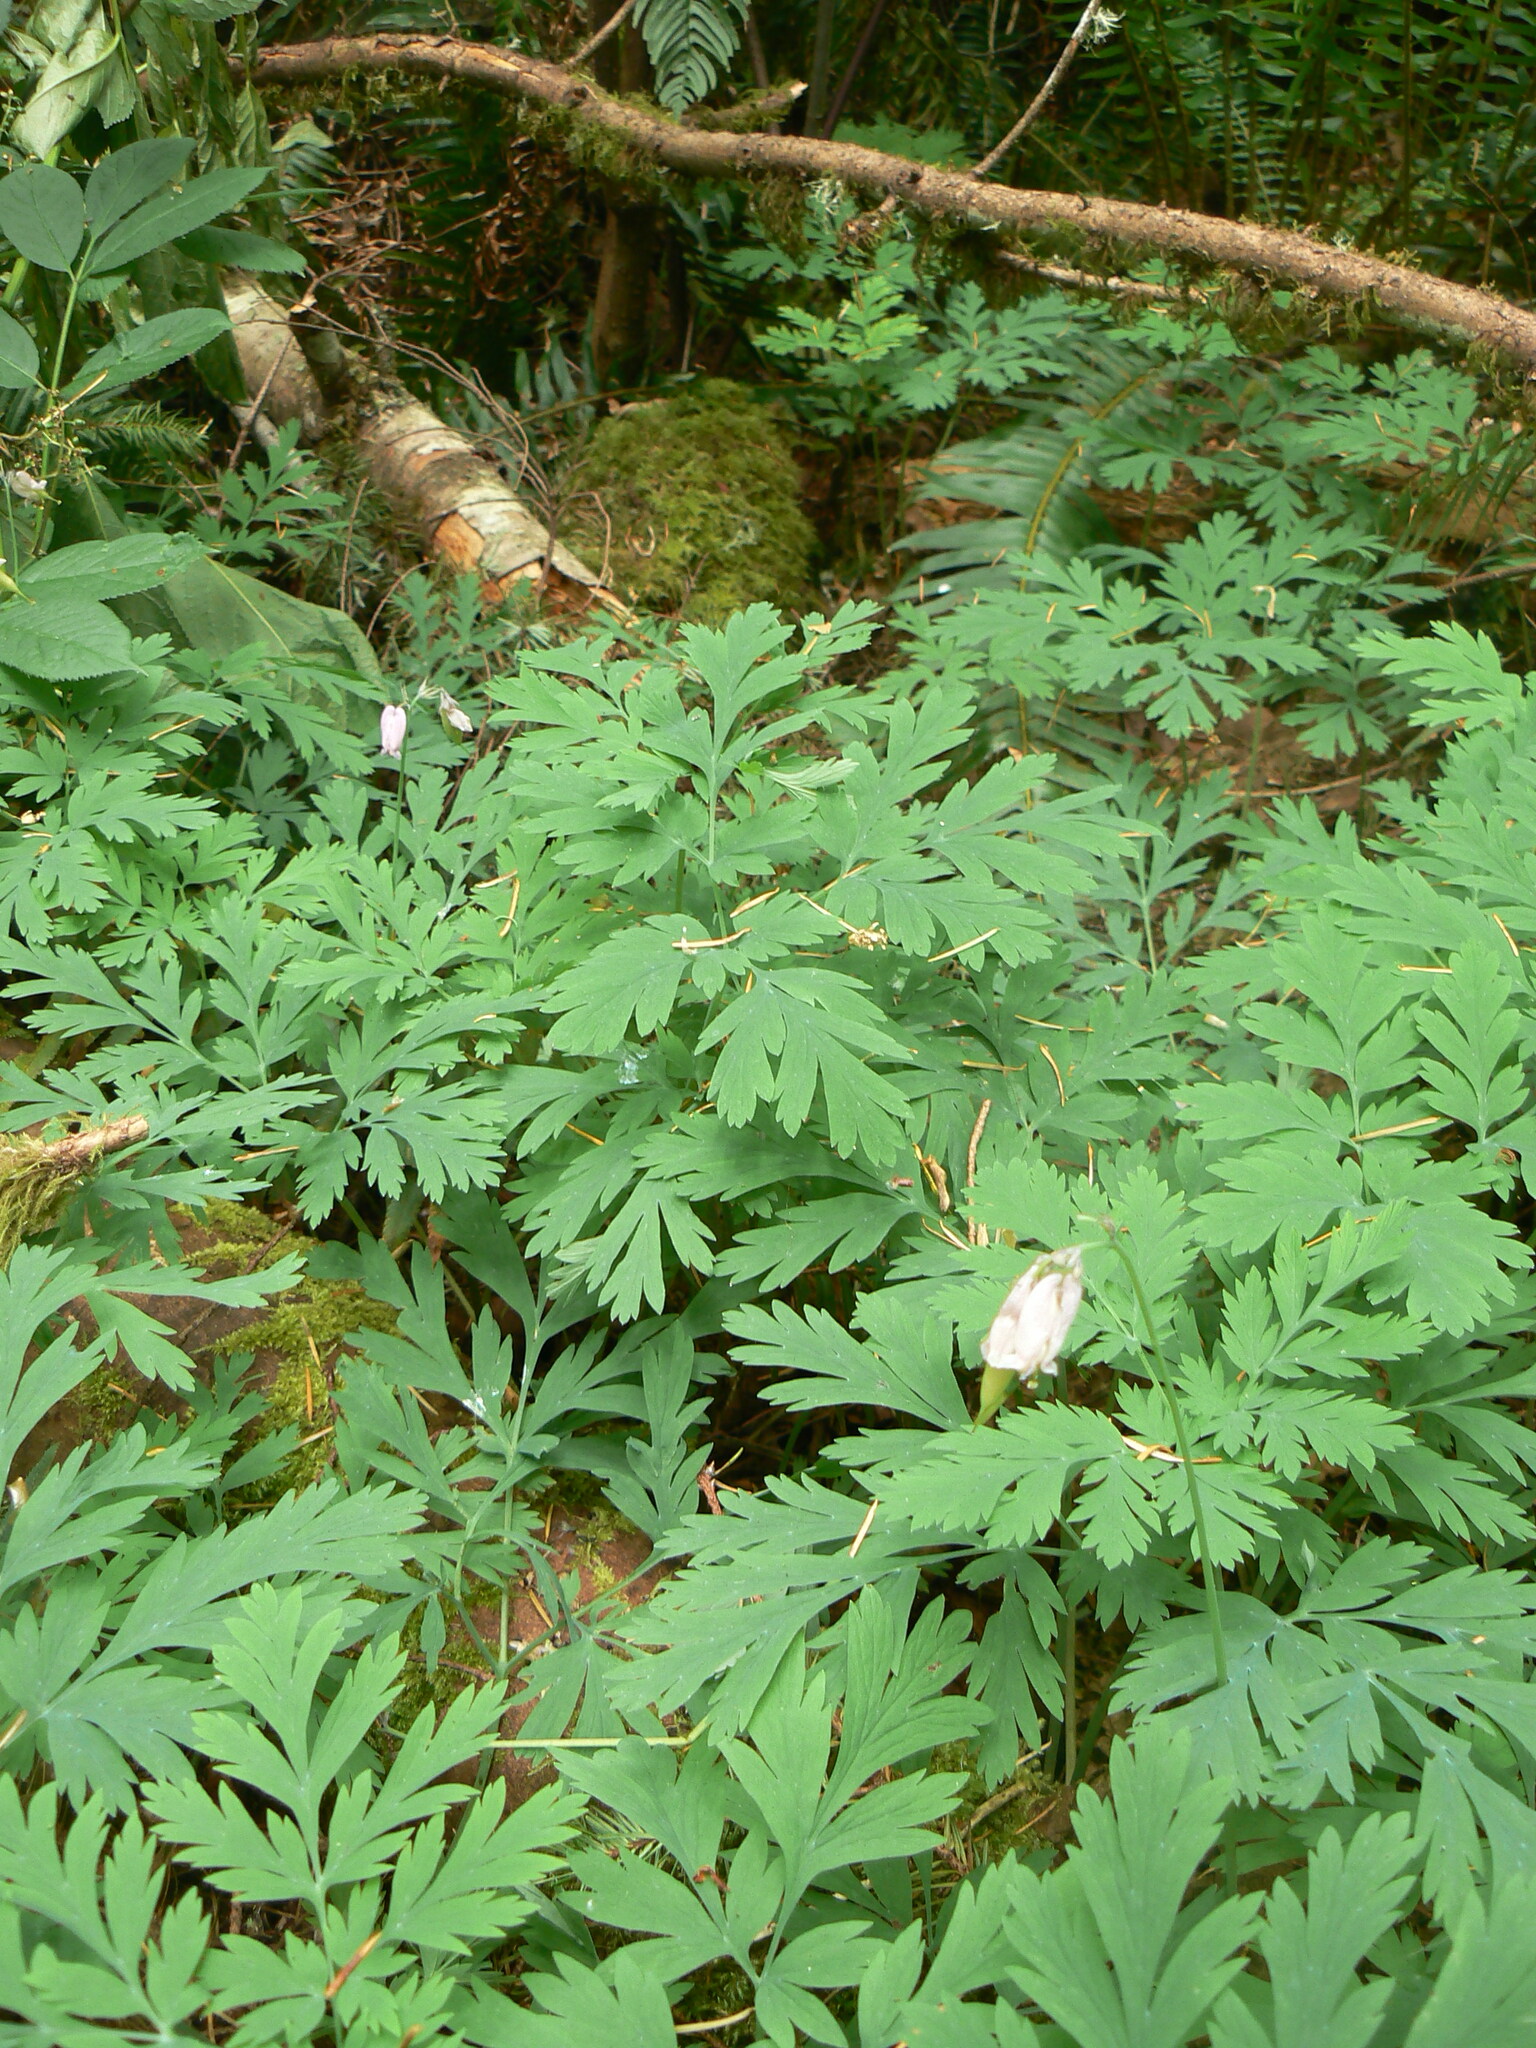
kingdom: Plantae
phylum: Tracheophyta
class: Magnoliopsida
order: Ranunculales
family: Papaveraceae
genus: Dicentra
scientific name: Dicentra formosa
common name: Bleeding-heart
